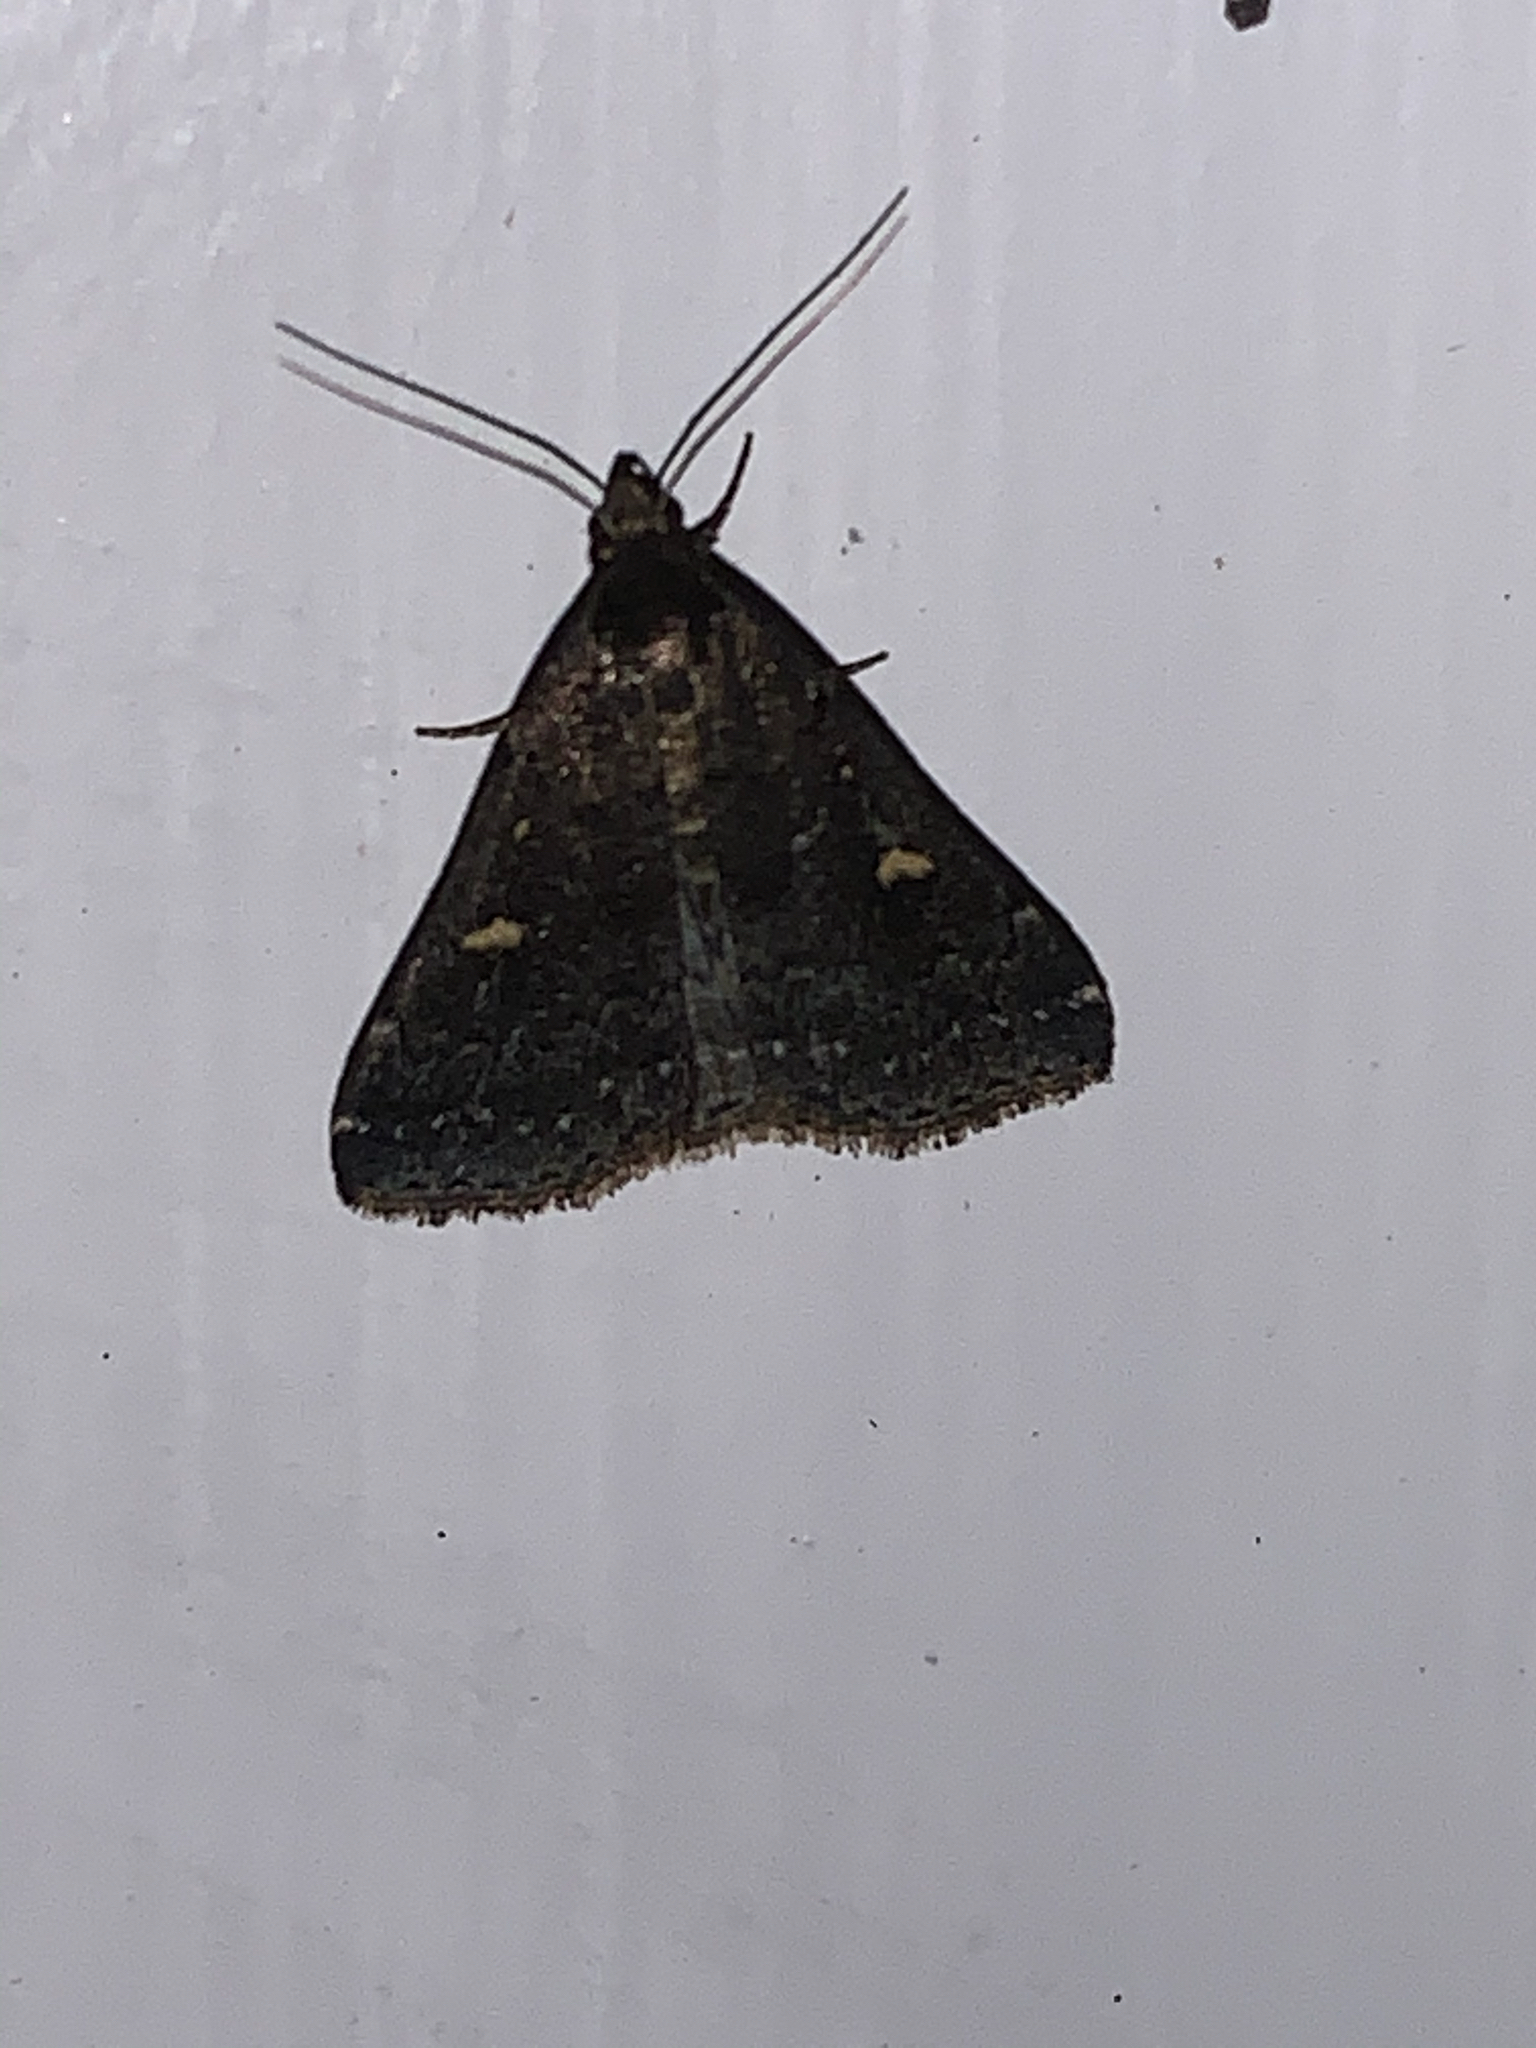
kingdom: Animalia
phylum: Arthropoda
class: Insecta
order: Lepidoptera
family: Erebidae
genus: Tetanolita
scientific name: Tetanolita mynesalis
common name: Smoky tetanolita moth
